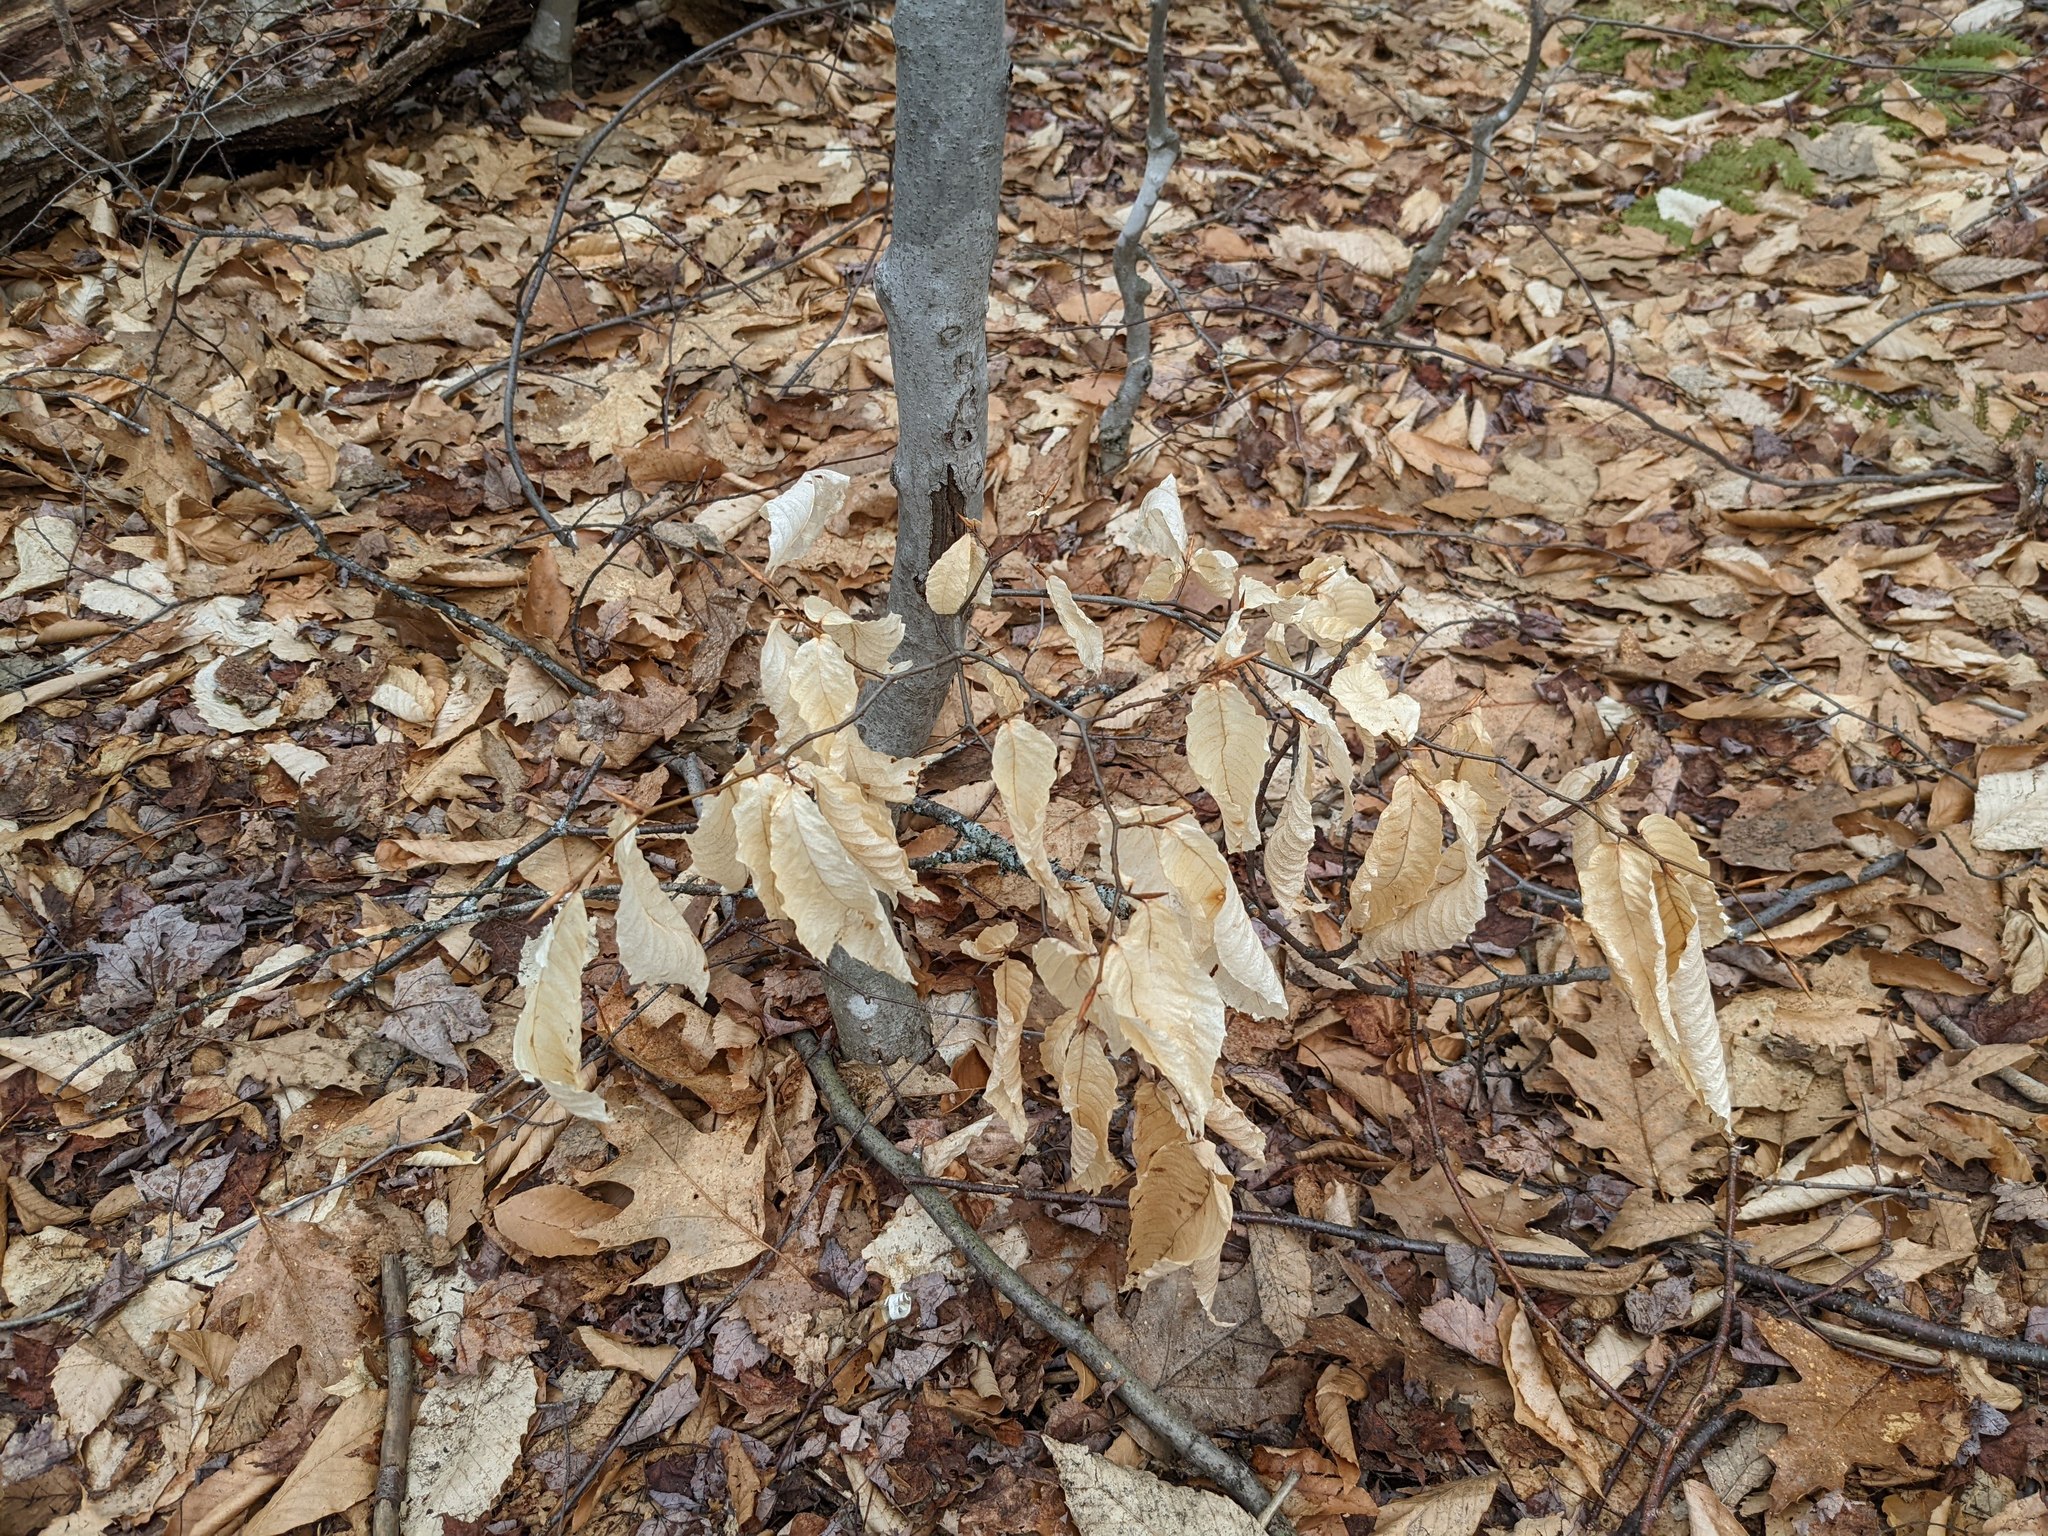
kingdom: Plantae
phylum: Tracheophyta
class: Magnoliopsida
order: Fagales
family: Fagaceae
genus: Fagus
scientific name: Fagus grandifolia
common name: American beech
